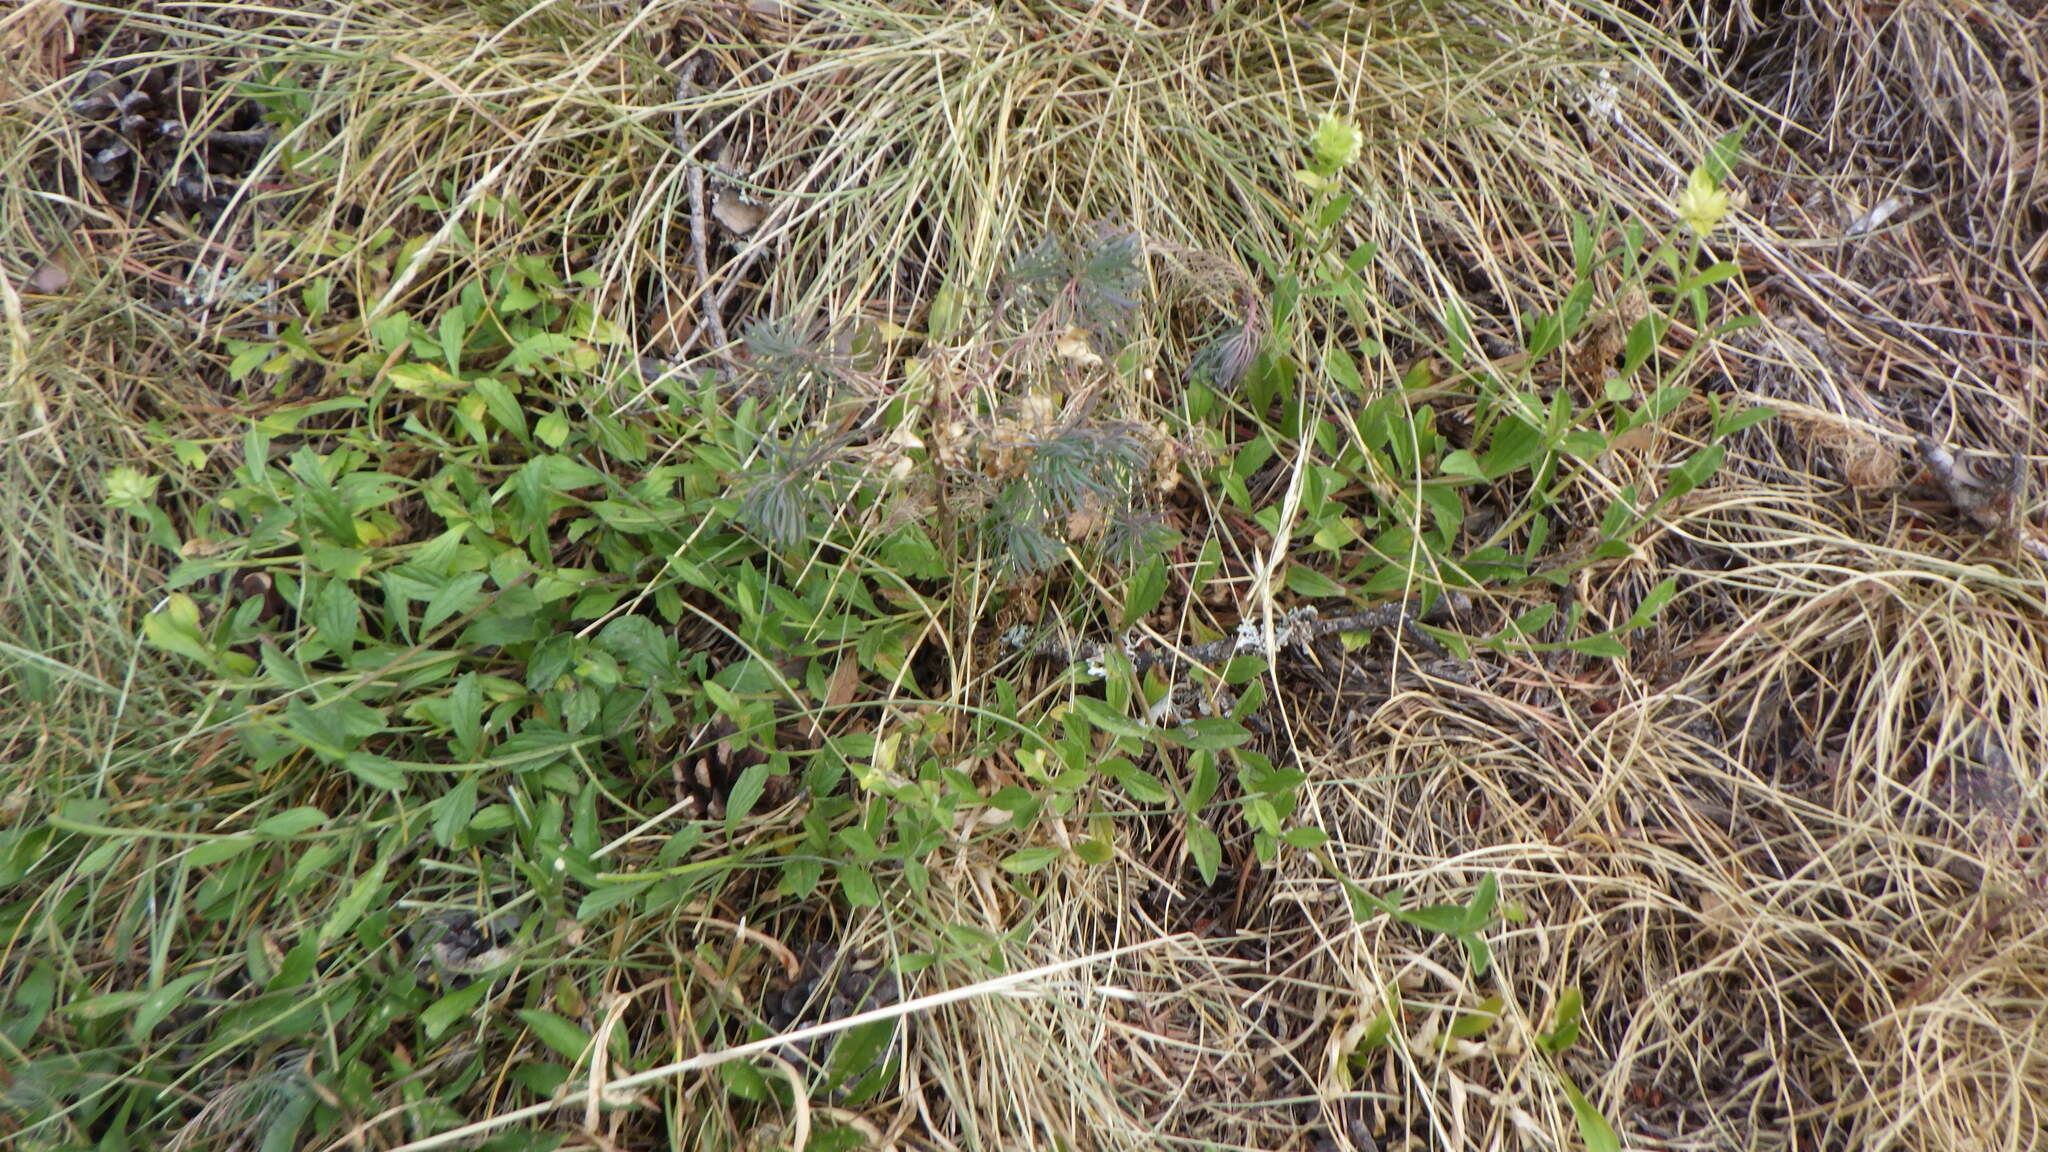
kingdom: Plantae
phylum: Tracheophyta
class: Magnoliopsida
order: Lamiales
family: Lamiaceae
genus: Sideritis
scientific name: Sideritis hyssopifolia
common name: Mountain tea
